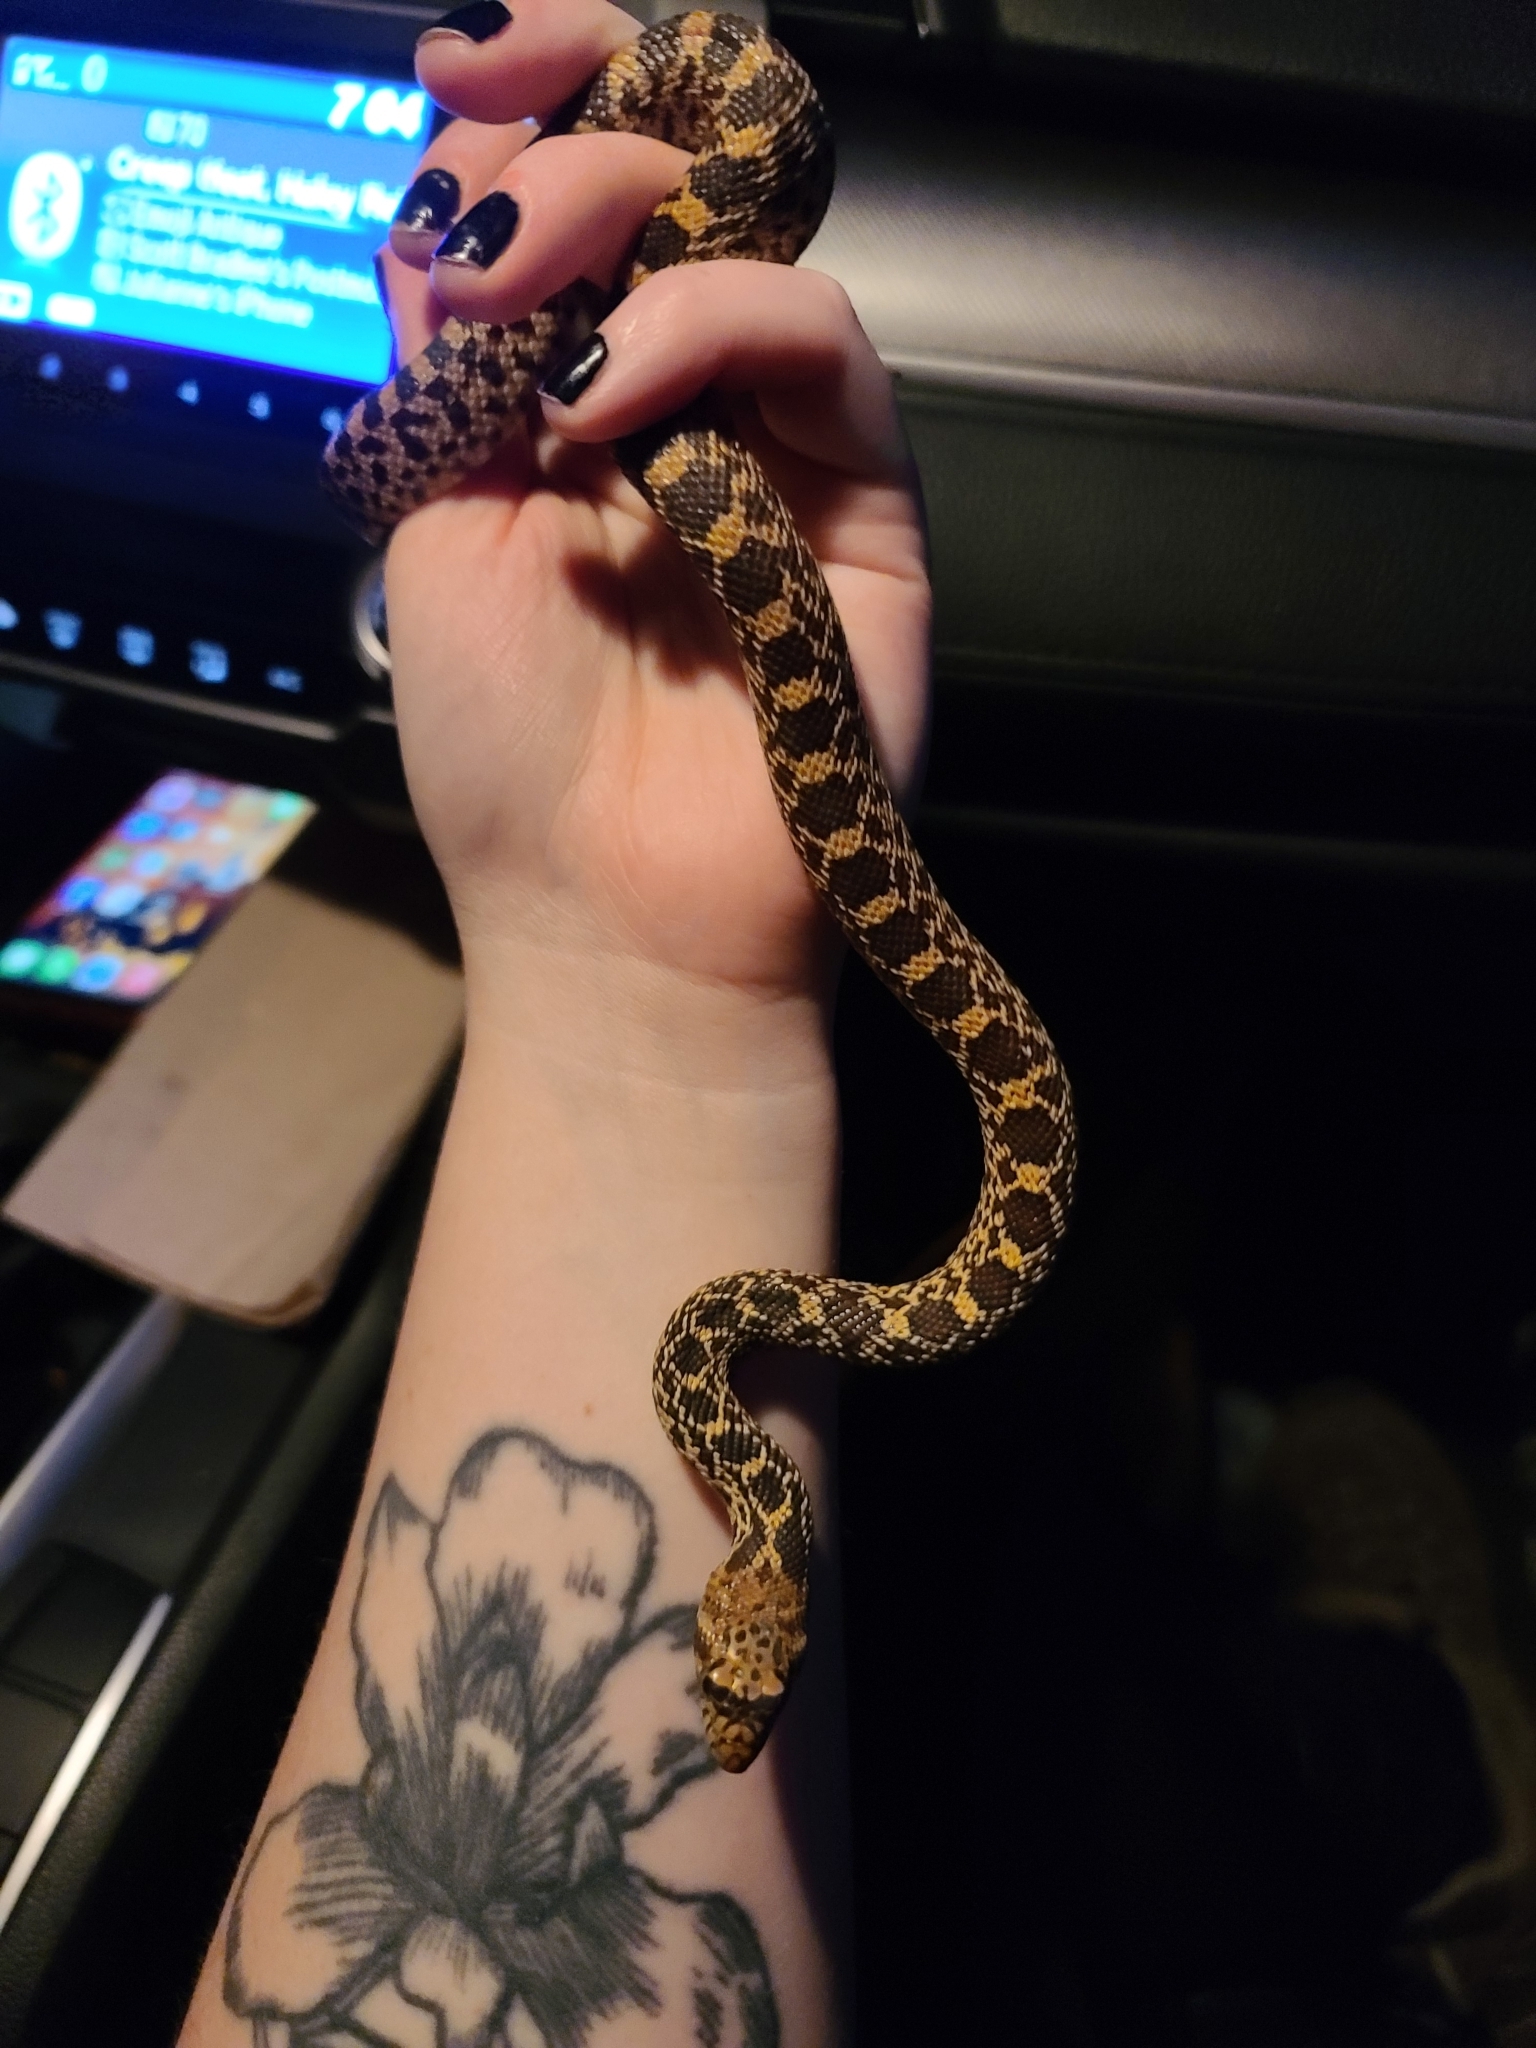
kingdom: Animalia
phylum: Chordata
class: Squamata
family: Colubridae
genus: Pituophis
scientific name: Pituophis catenifer
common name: Gopher snake
